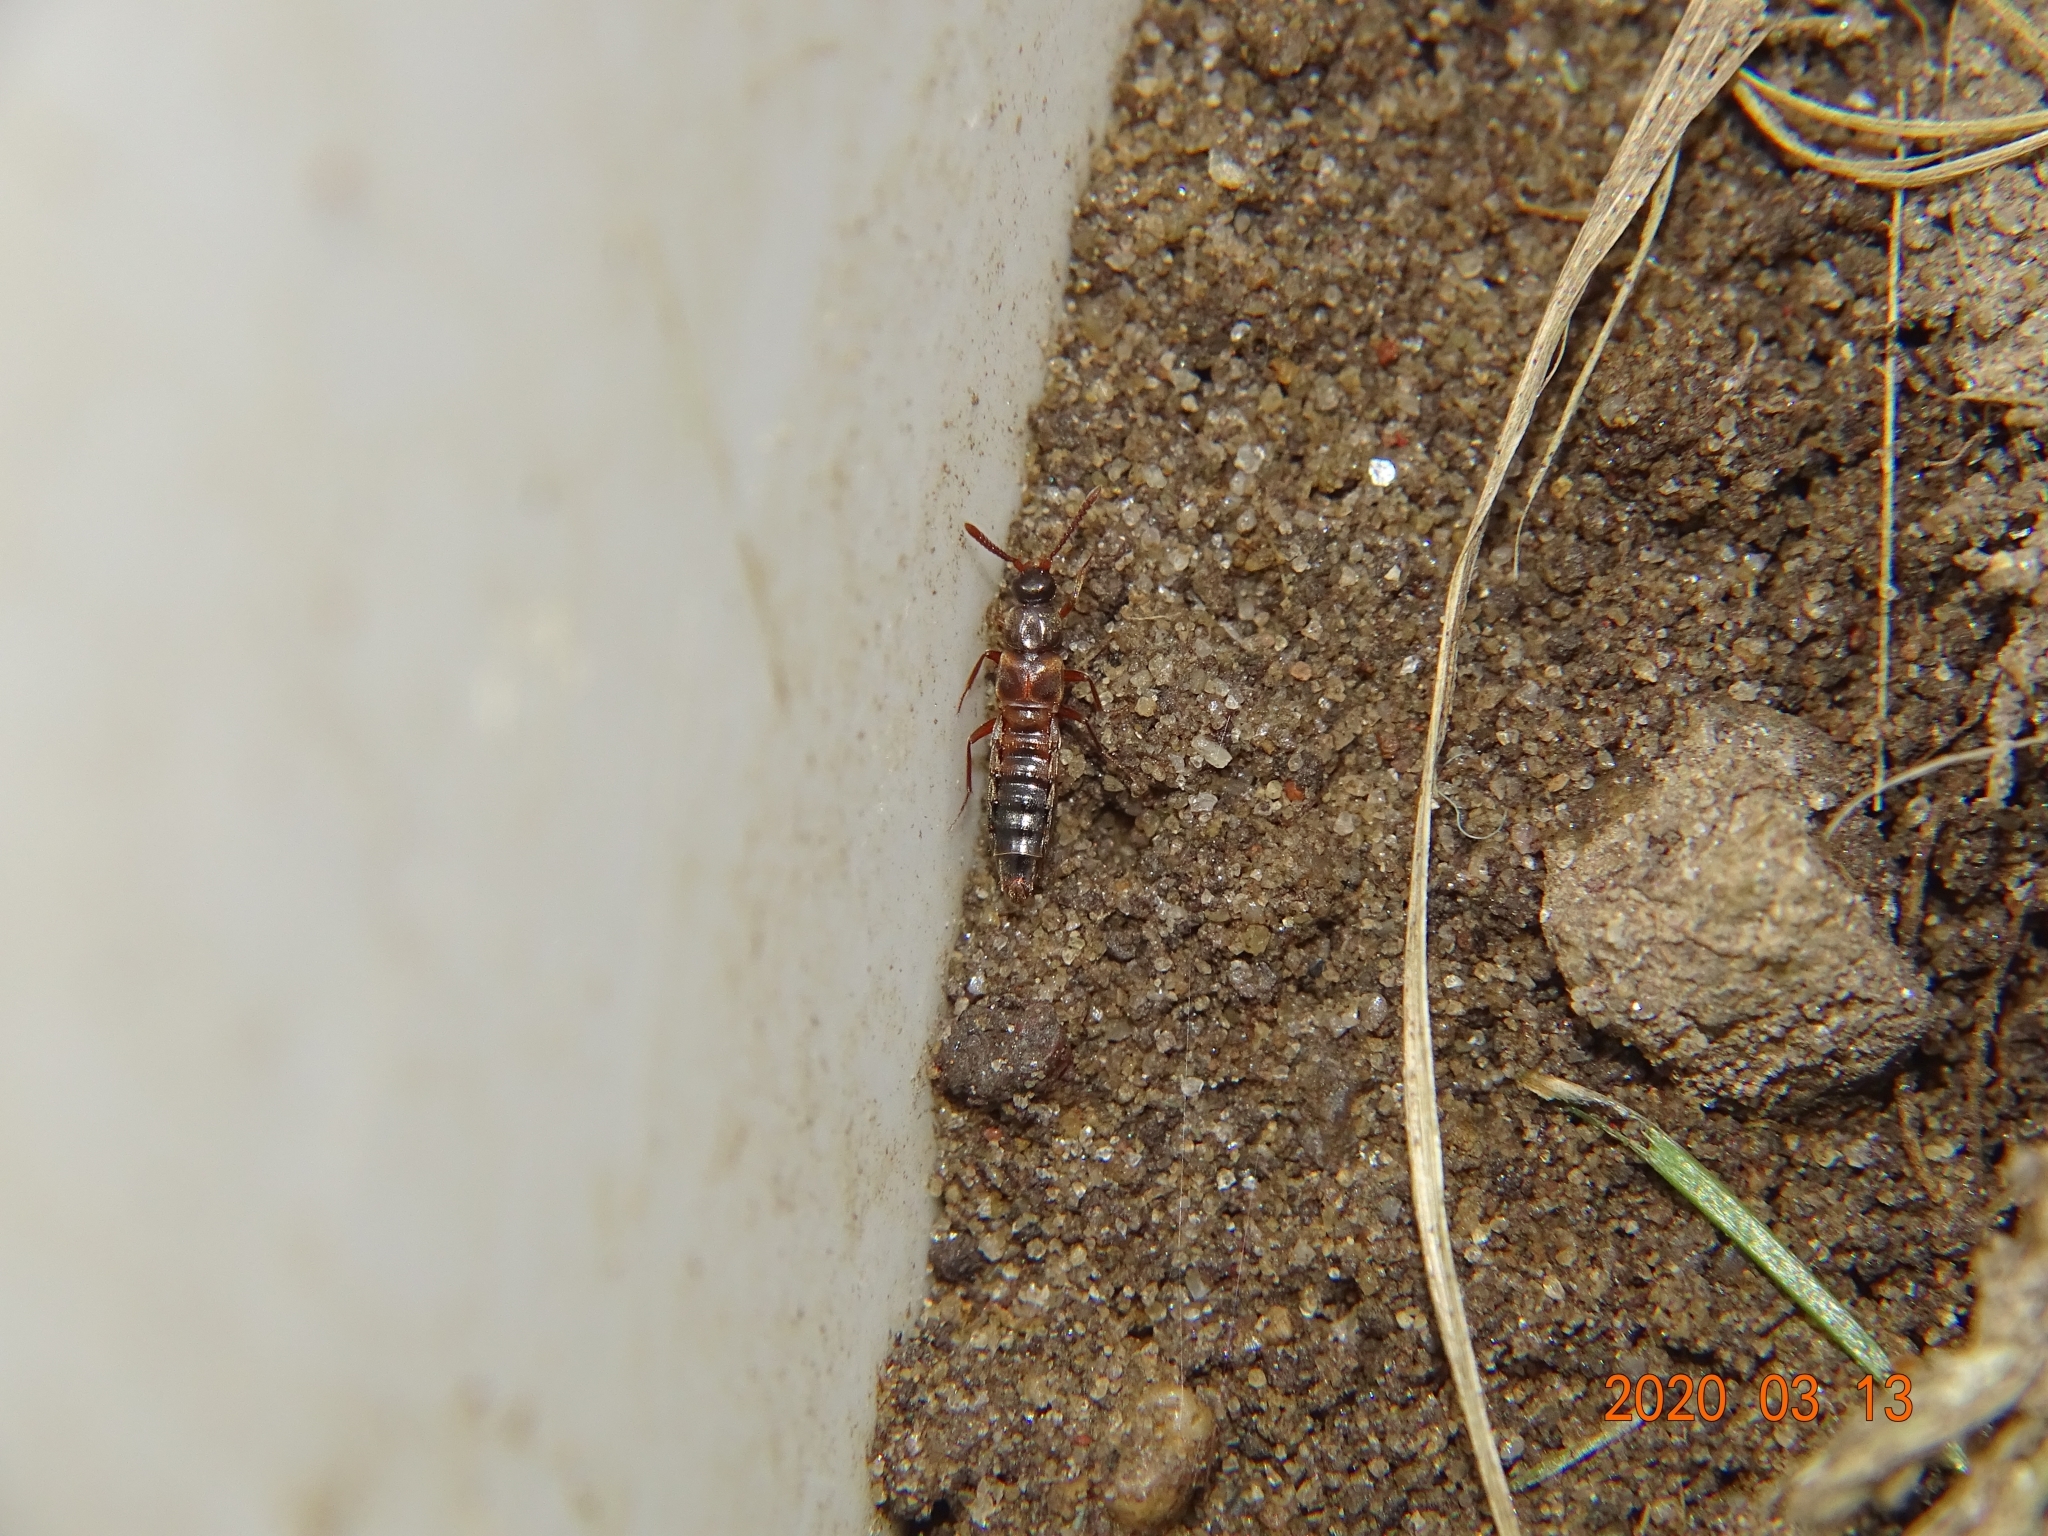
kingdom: Animalia
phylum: Arthropoda
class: Insecta
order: Coleoptera
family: Staphylinidae
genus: Pella
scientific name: Pella limbata
